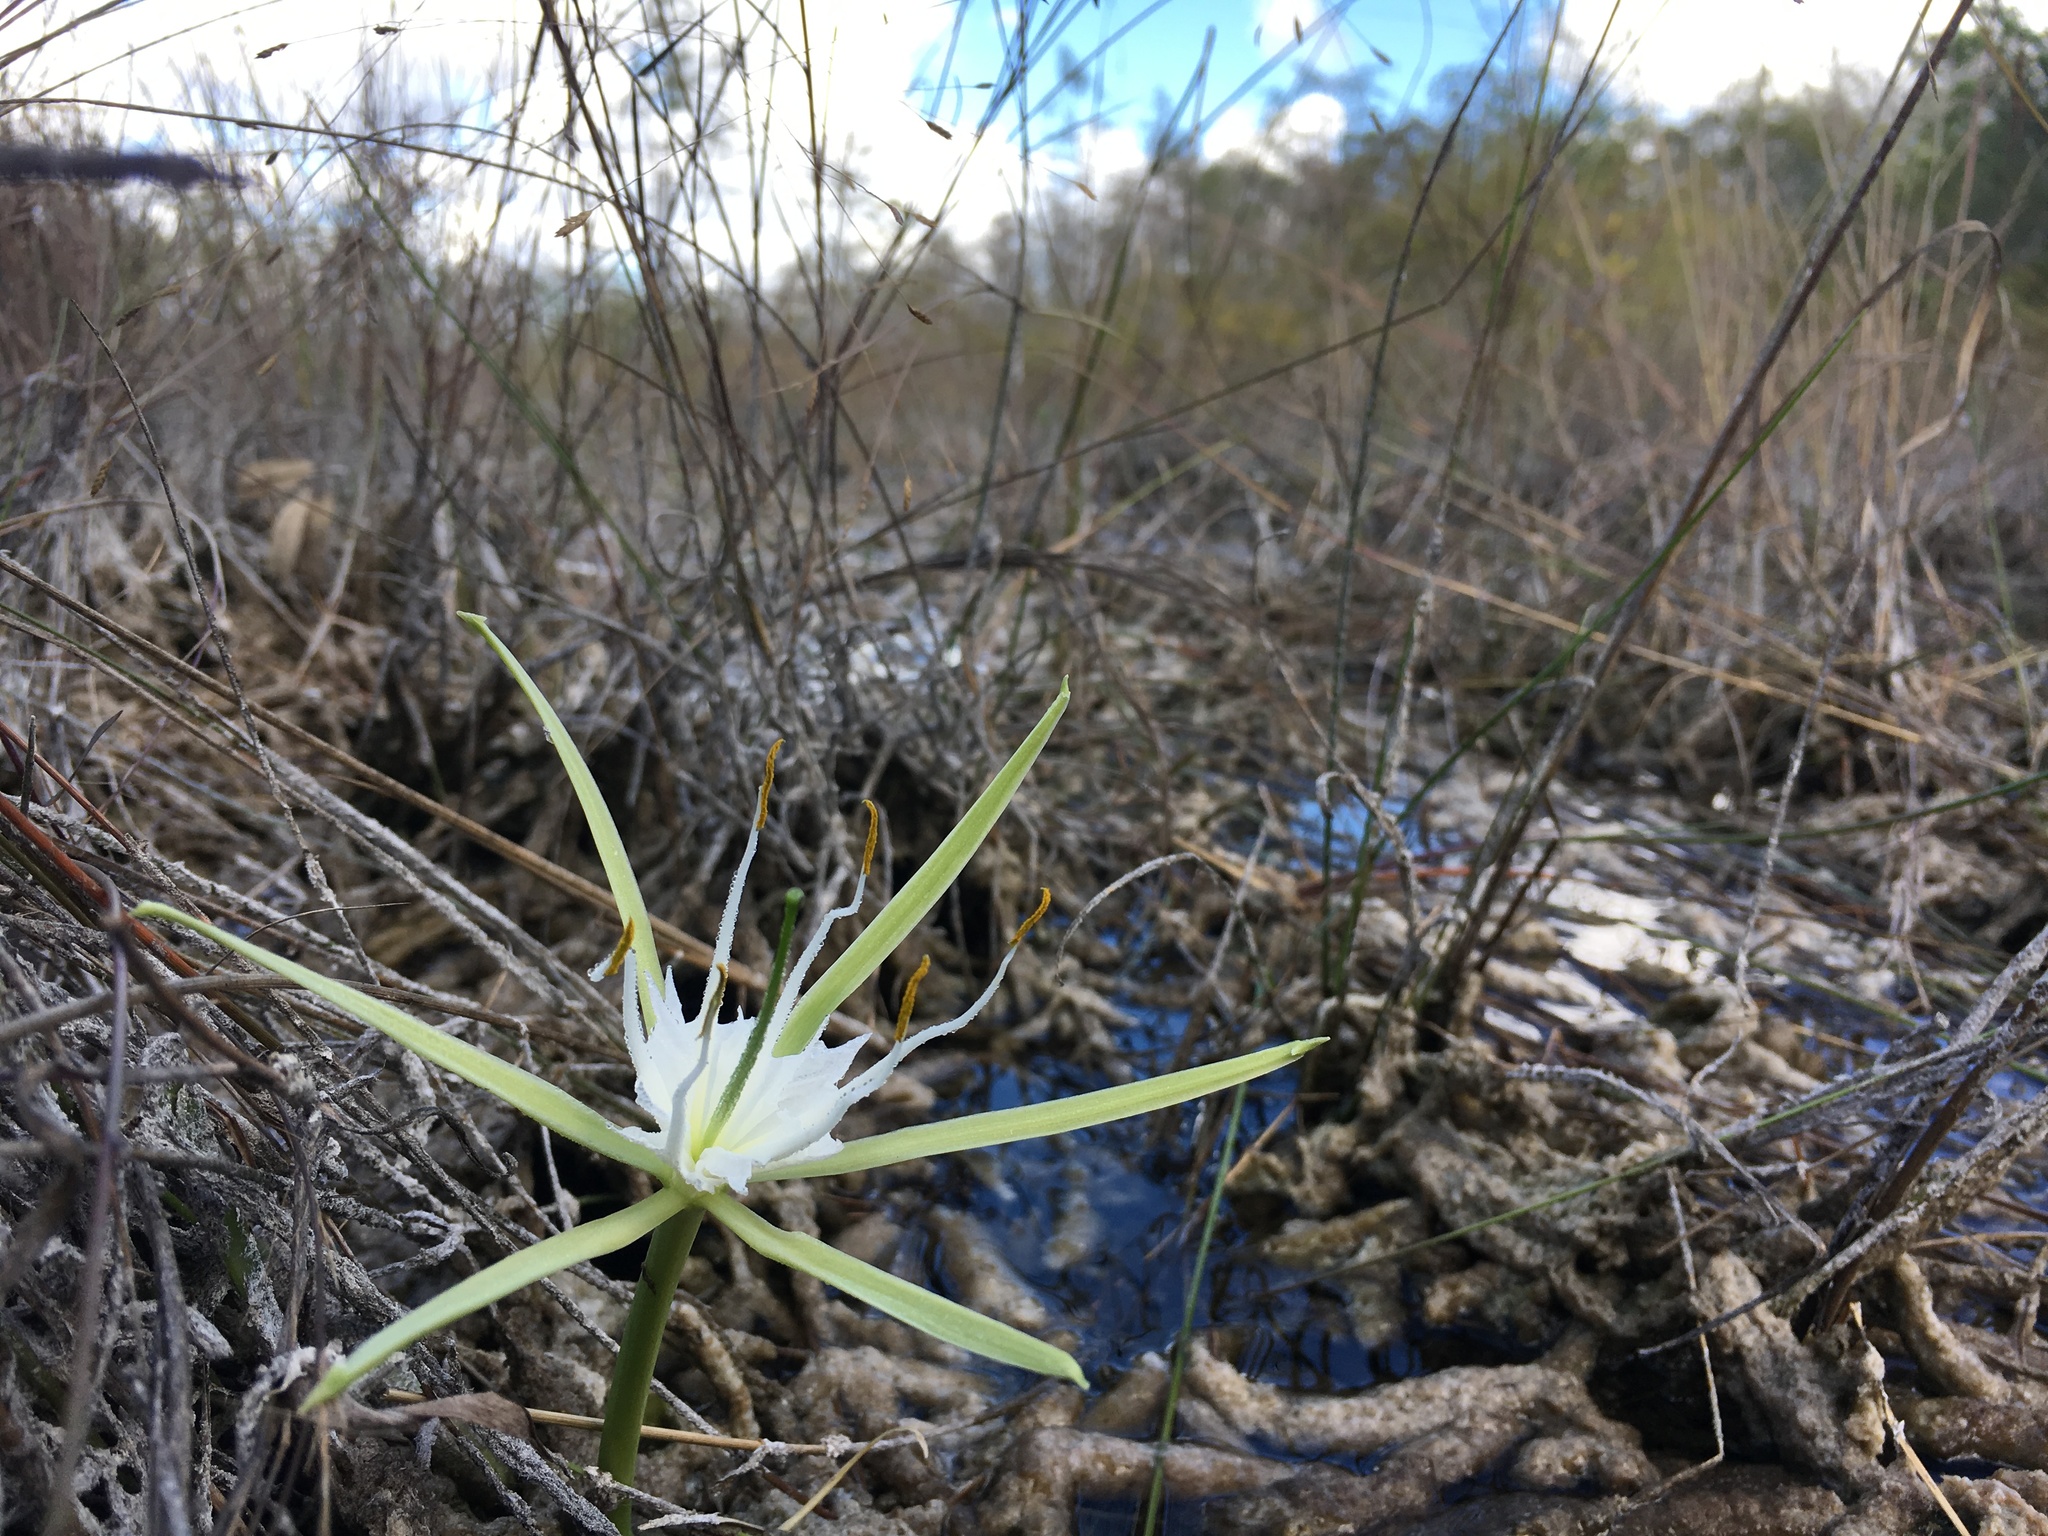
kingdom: Plantae
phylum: Tracheophyta
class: Liliopsida
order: Asparagales
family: Amaryllidaceae
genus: Hymenocallis
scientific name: Hymenocallis palmeri
